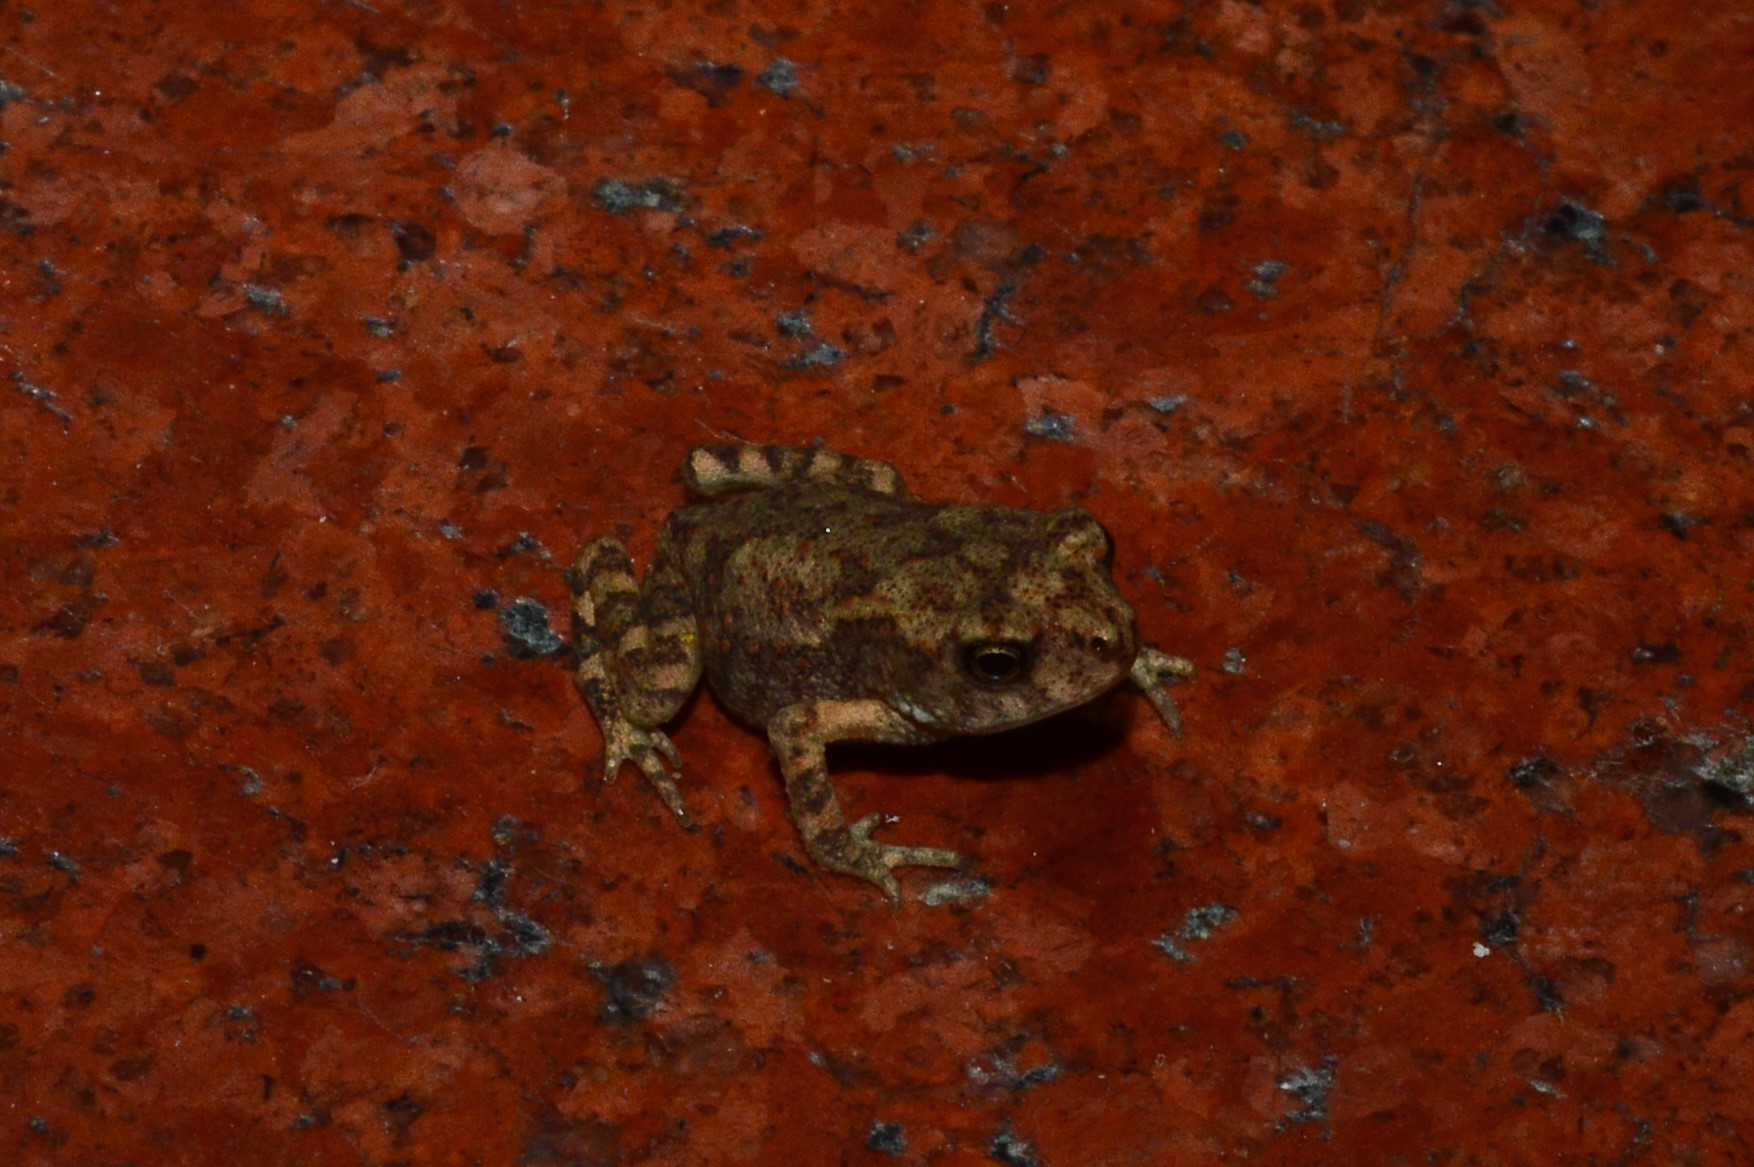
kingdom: Animalia
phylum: Chordata
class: Amphibia
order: Anura
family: Bufonidae
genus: Duttaphrynus
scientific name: Duttaphrynus melanostictus
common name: Common sunda toad
